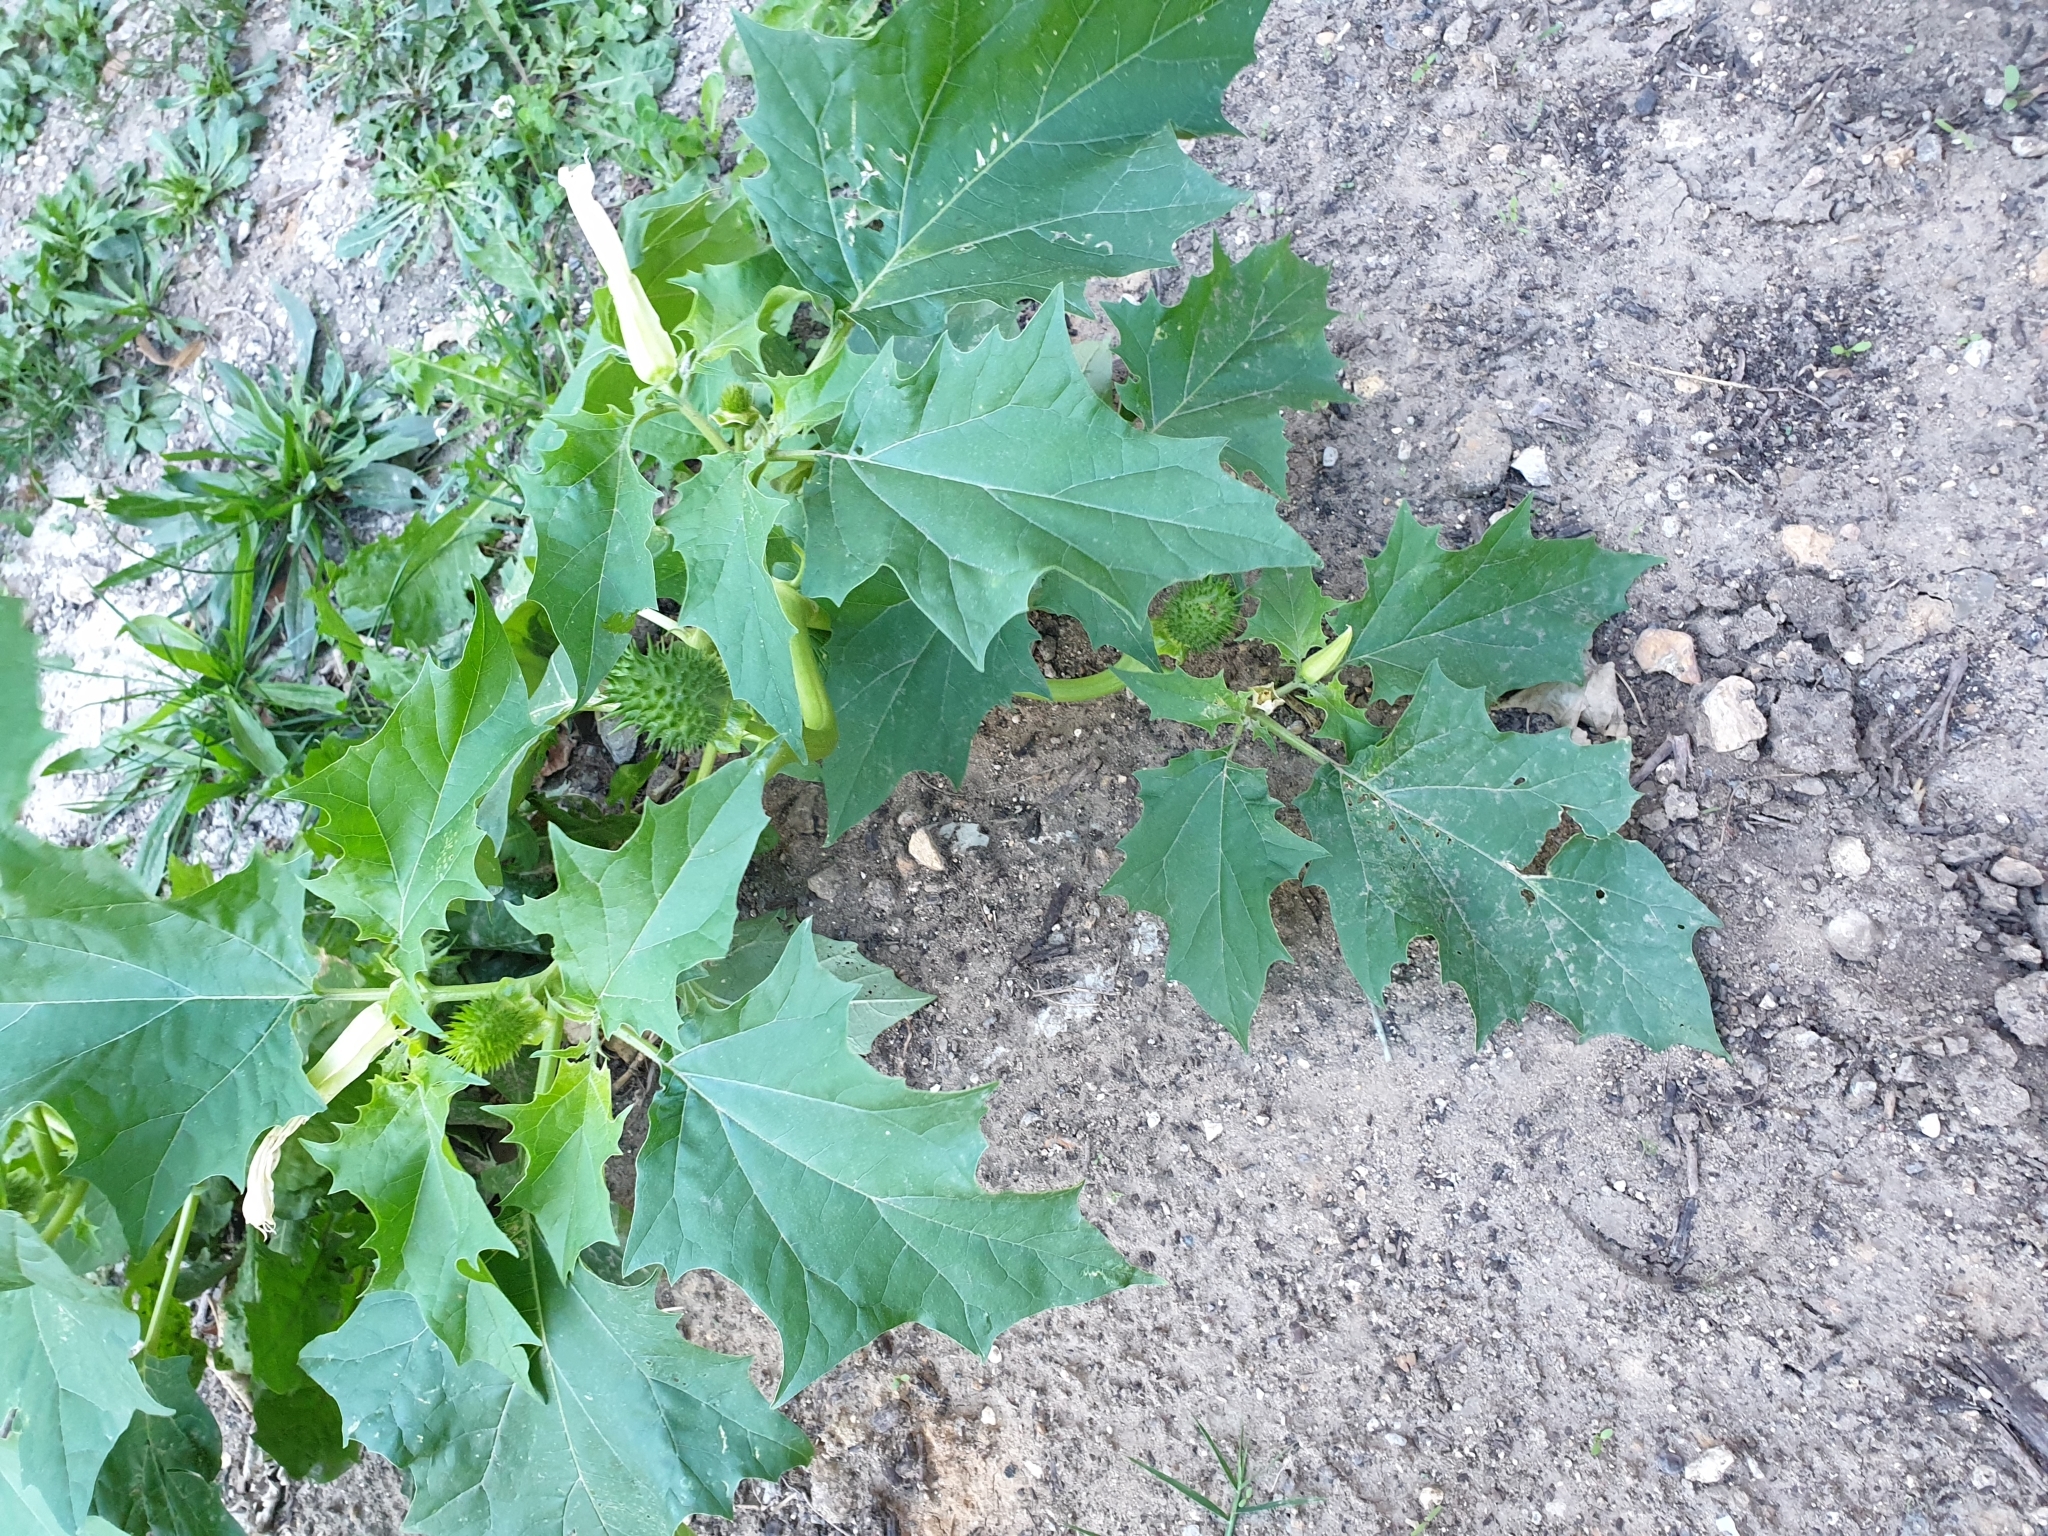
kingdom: Plantae
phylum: Tracheophyta
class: Magnoliopsida
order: Solanales
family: Solanaceae
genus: Datura
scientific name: Datura stramonium
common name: Thorn-apple
